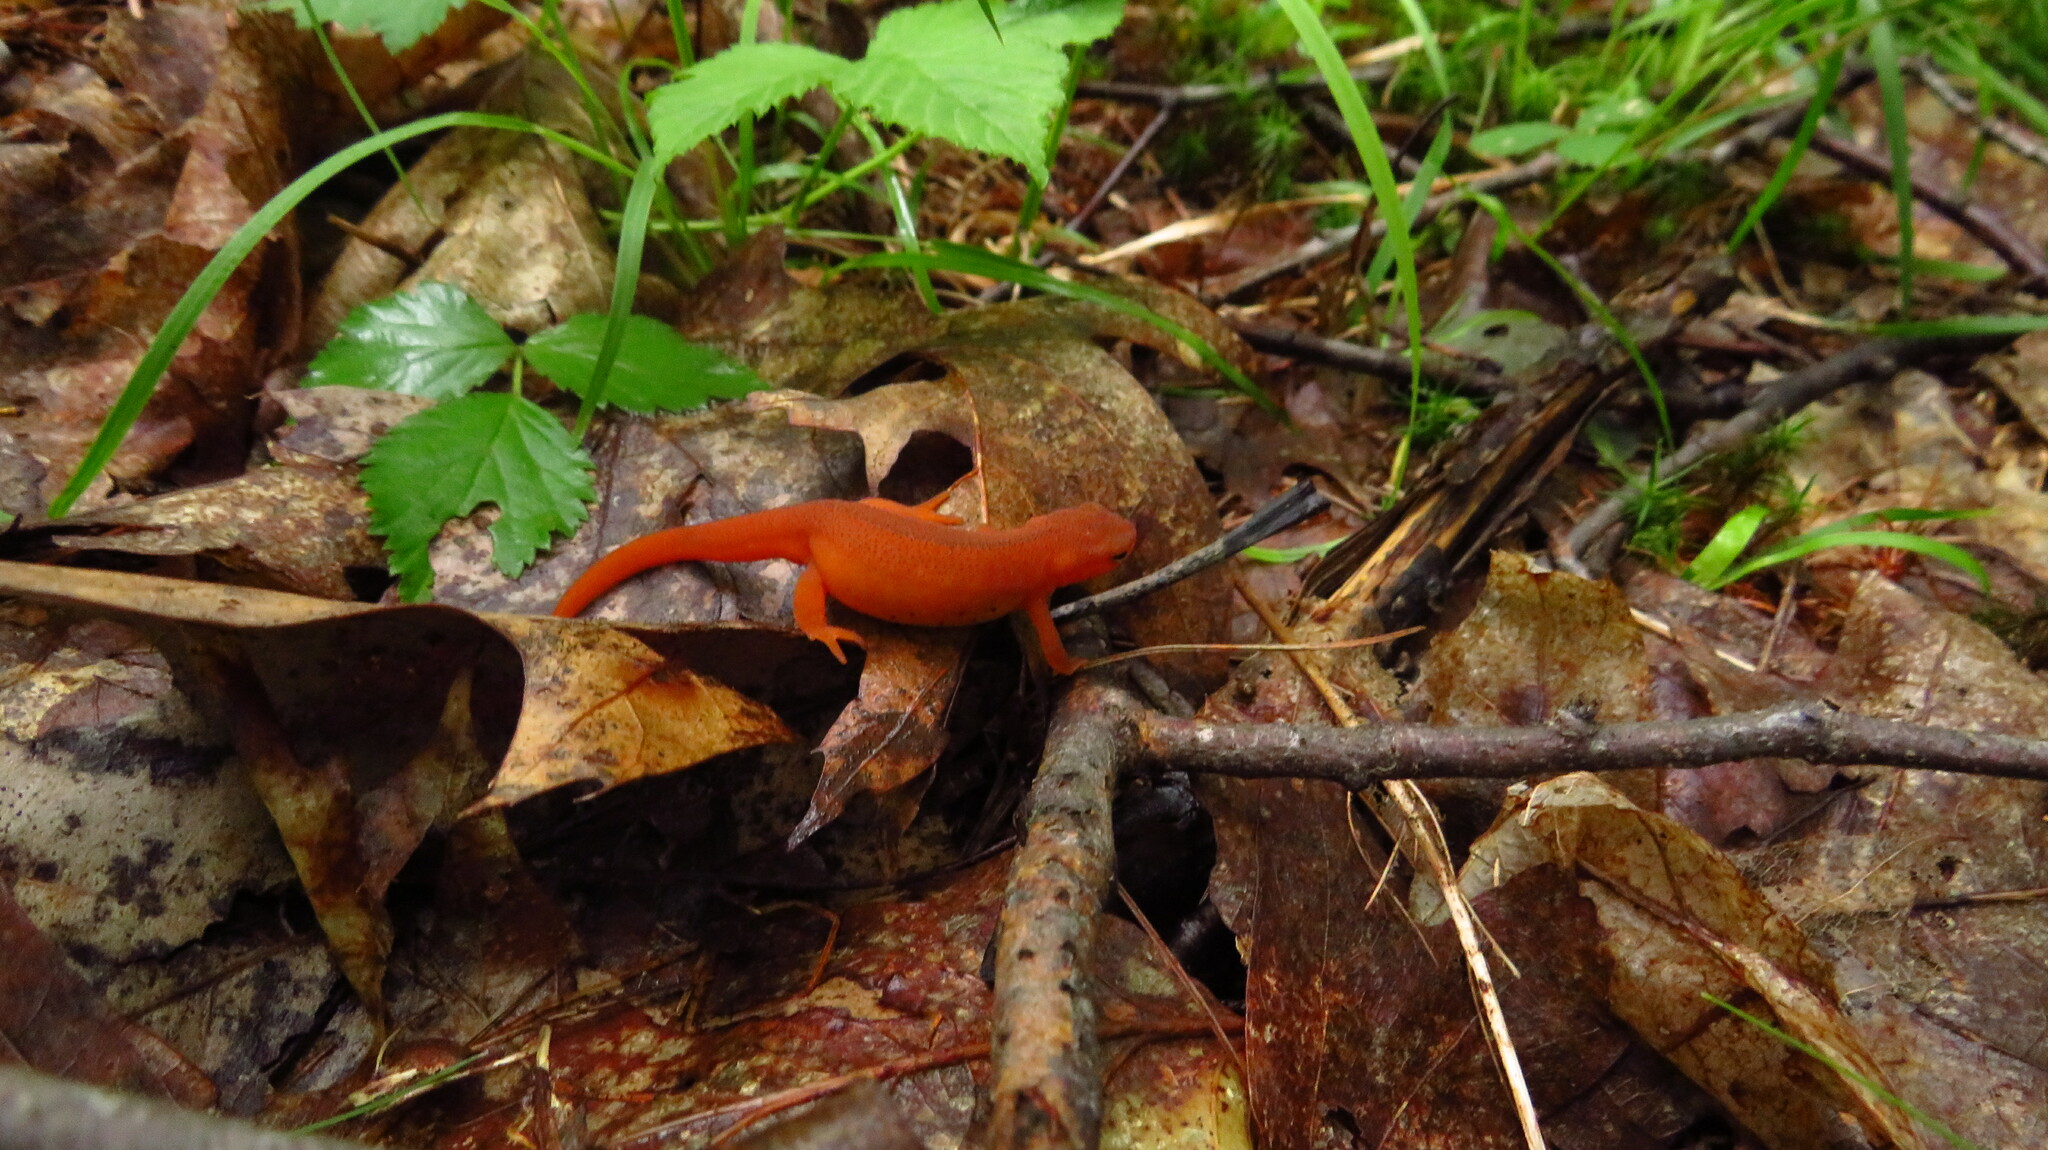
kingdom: Animalia
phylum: Chordata
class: Amphibia
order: Caudata
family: Salamandridae
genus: Notophthalmus
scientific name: Notophthalmus viridescens
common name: Eastern newt
